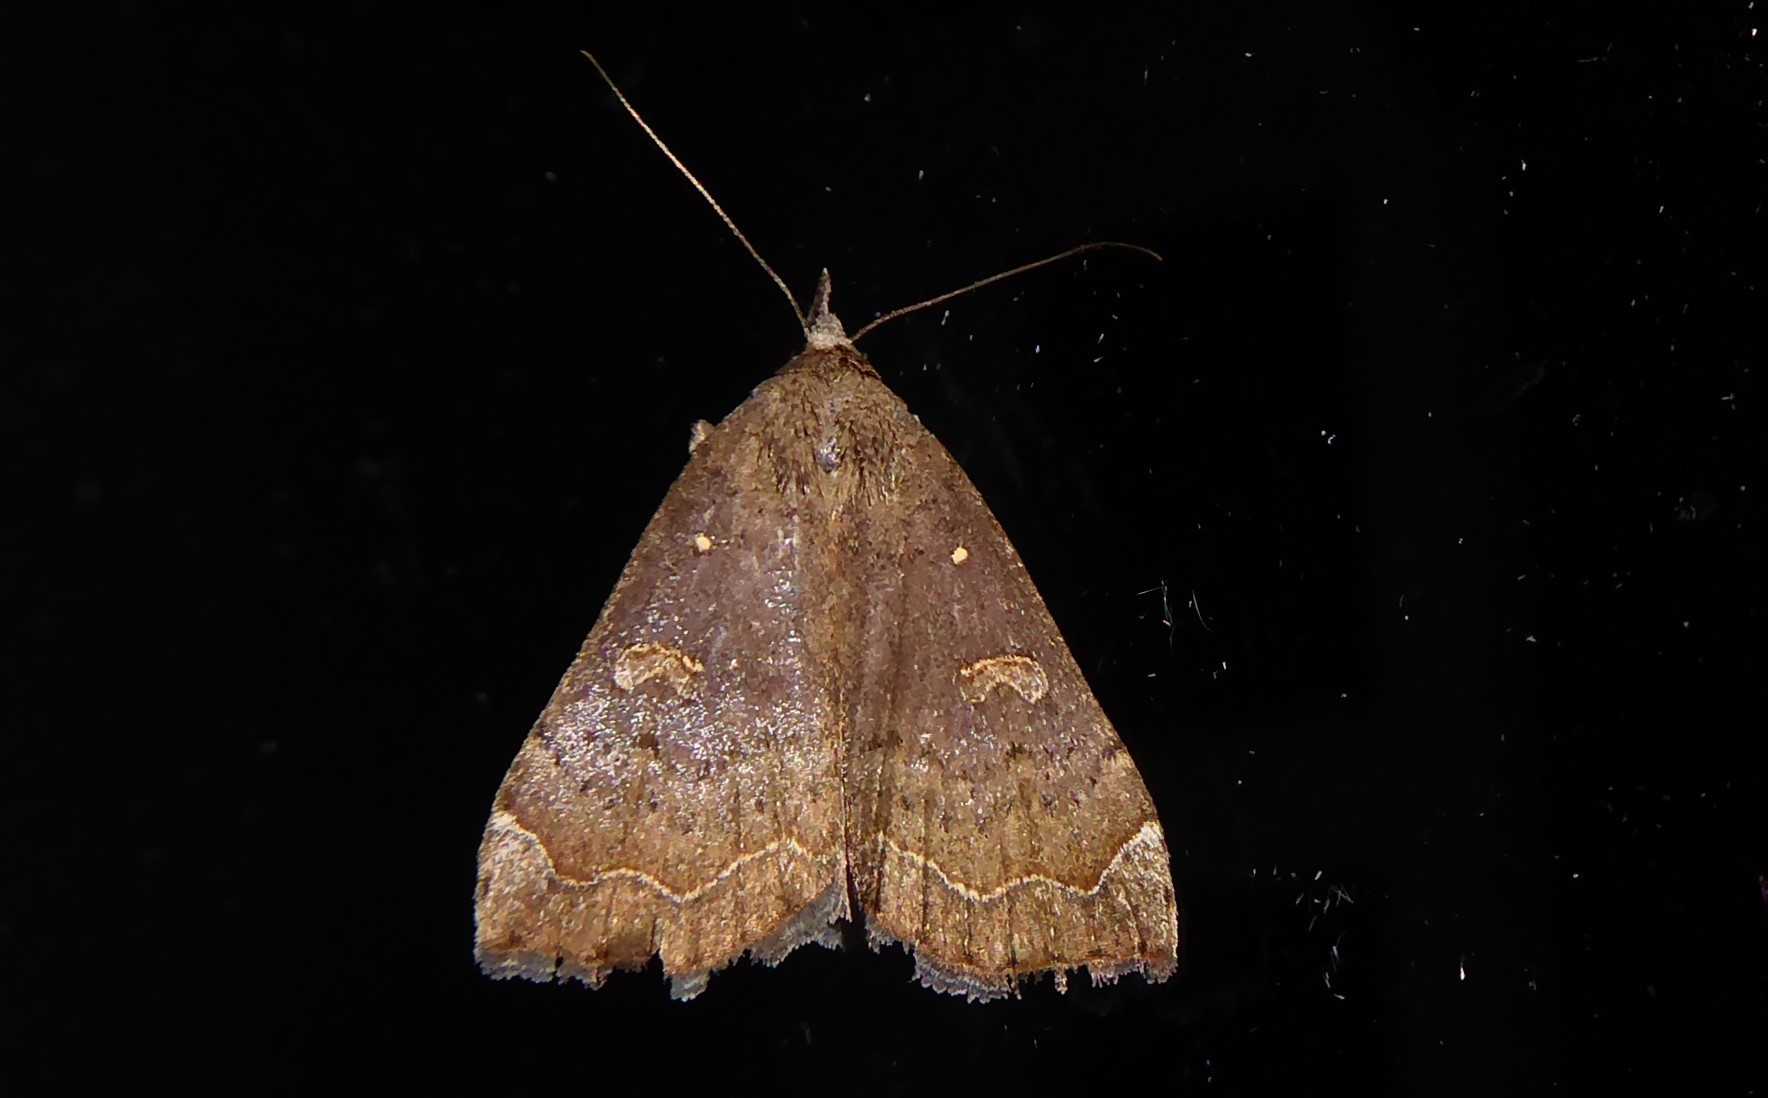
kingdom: Animalia
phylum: Arthropoda
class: Insecta
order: Lepidoptera
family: Erebidae
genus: Rhapsa
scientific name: Rhapsa scotosialis
